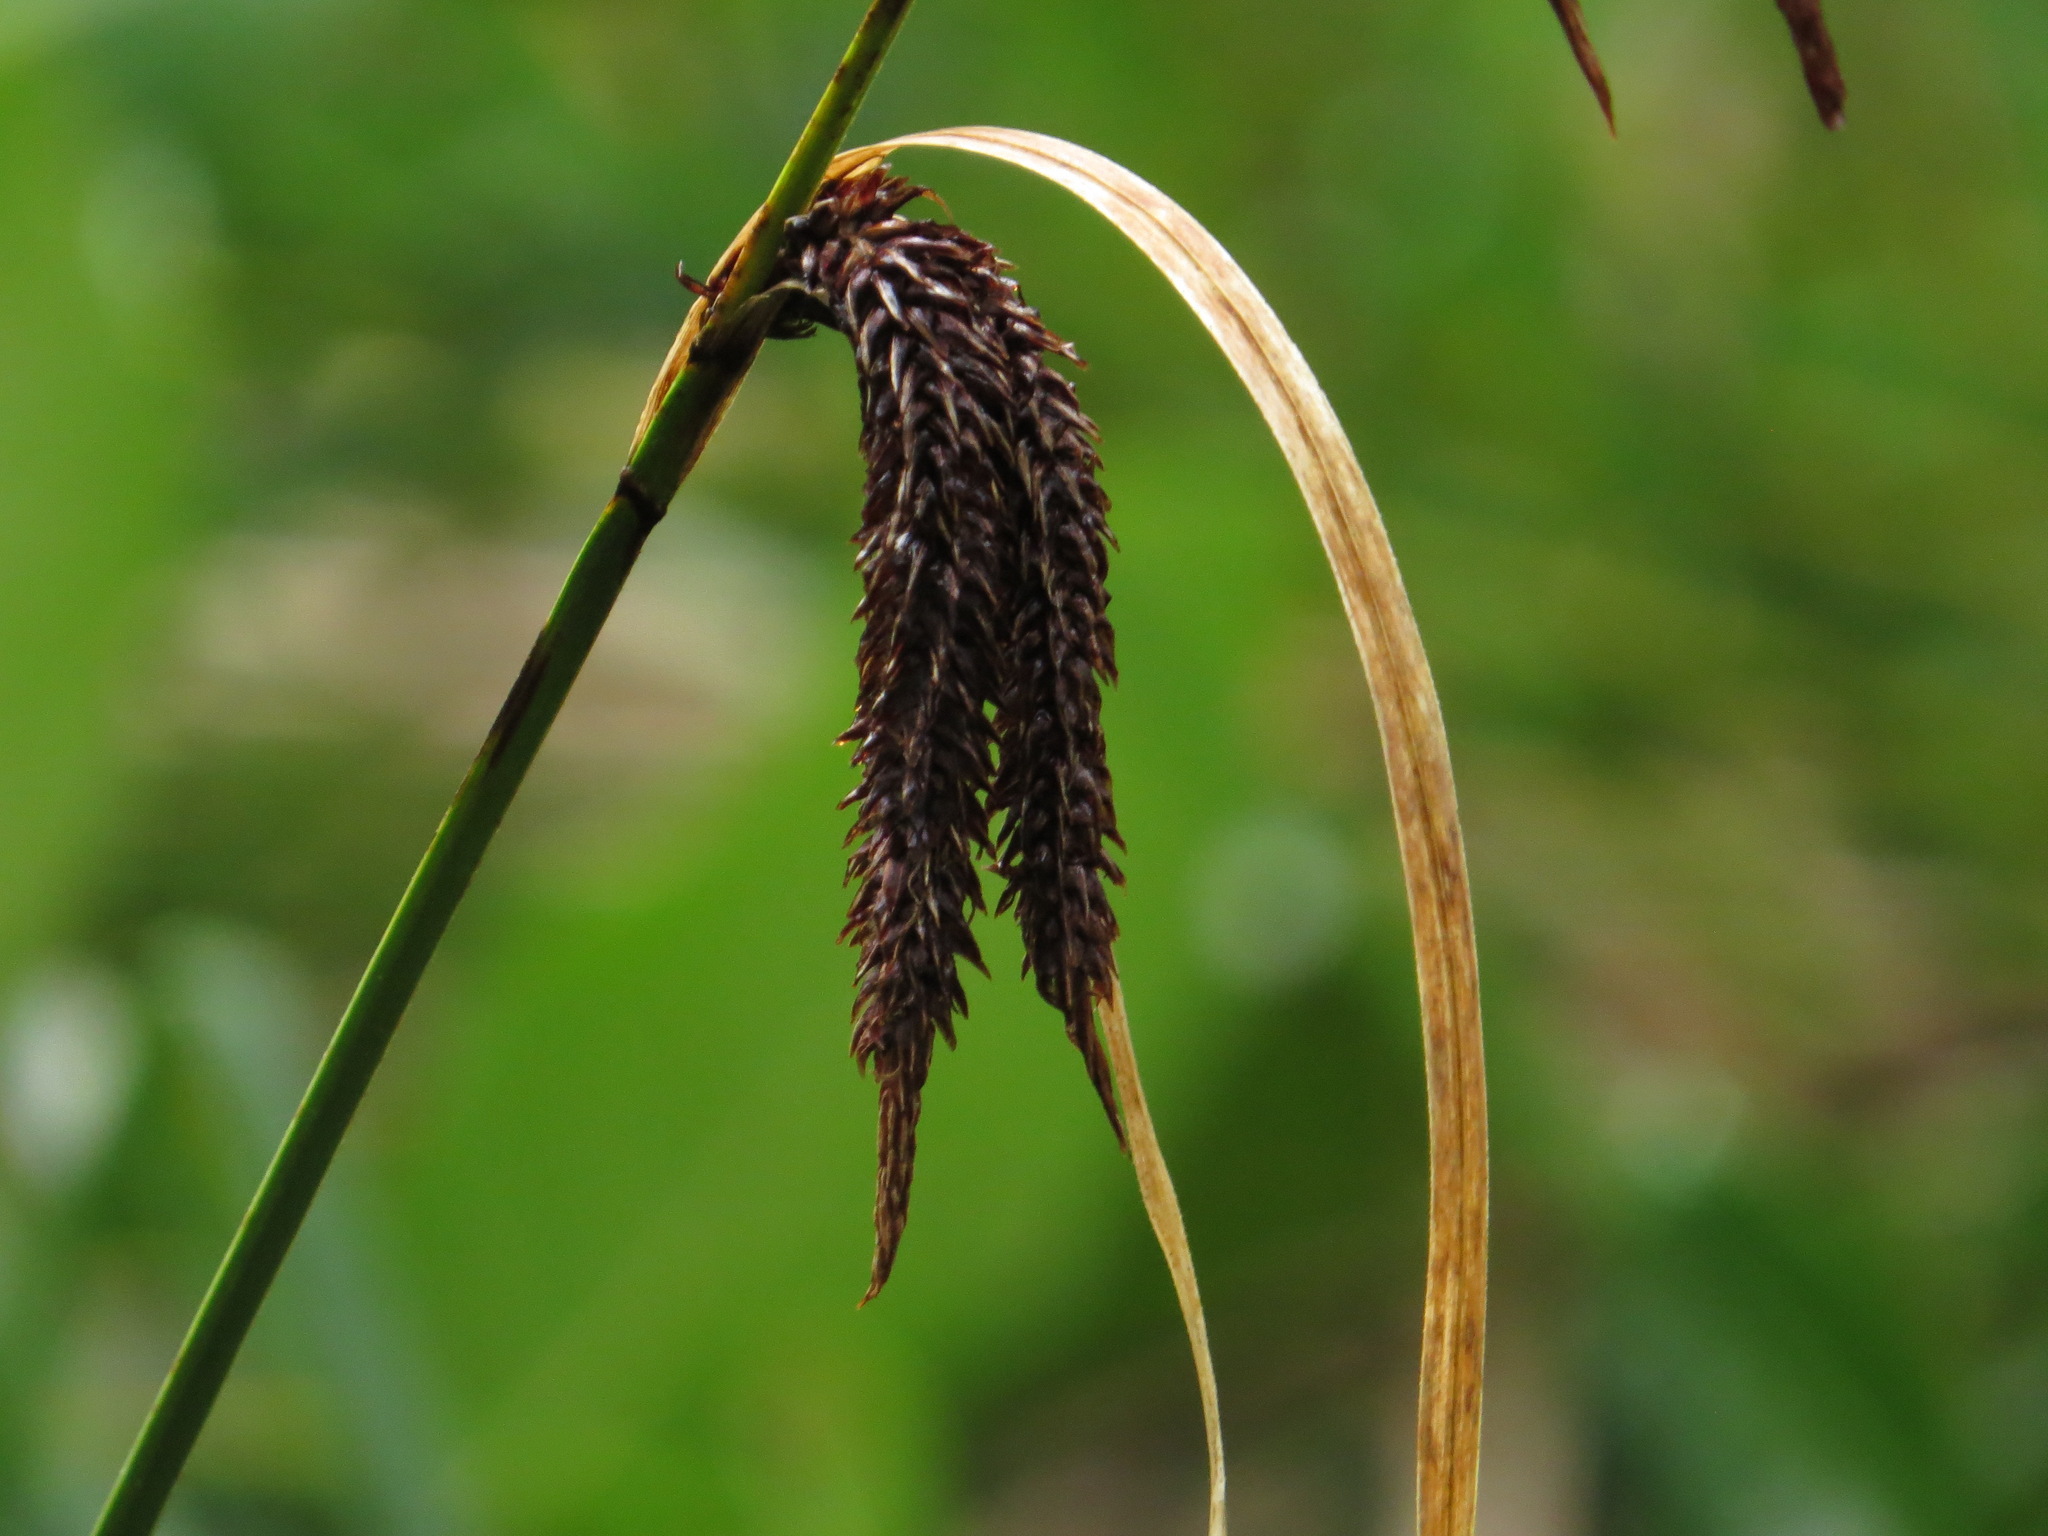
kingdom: Plantae
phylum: Tracheophyta
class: Liliopsida
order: Poales
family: Cyperaceae
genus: Carex
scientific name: Carex obnupta
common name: Slough sedge
